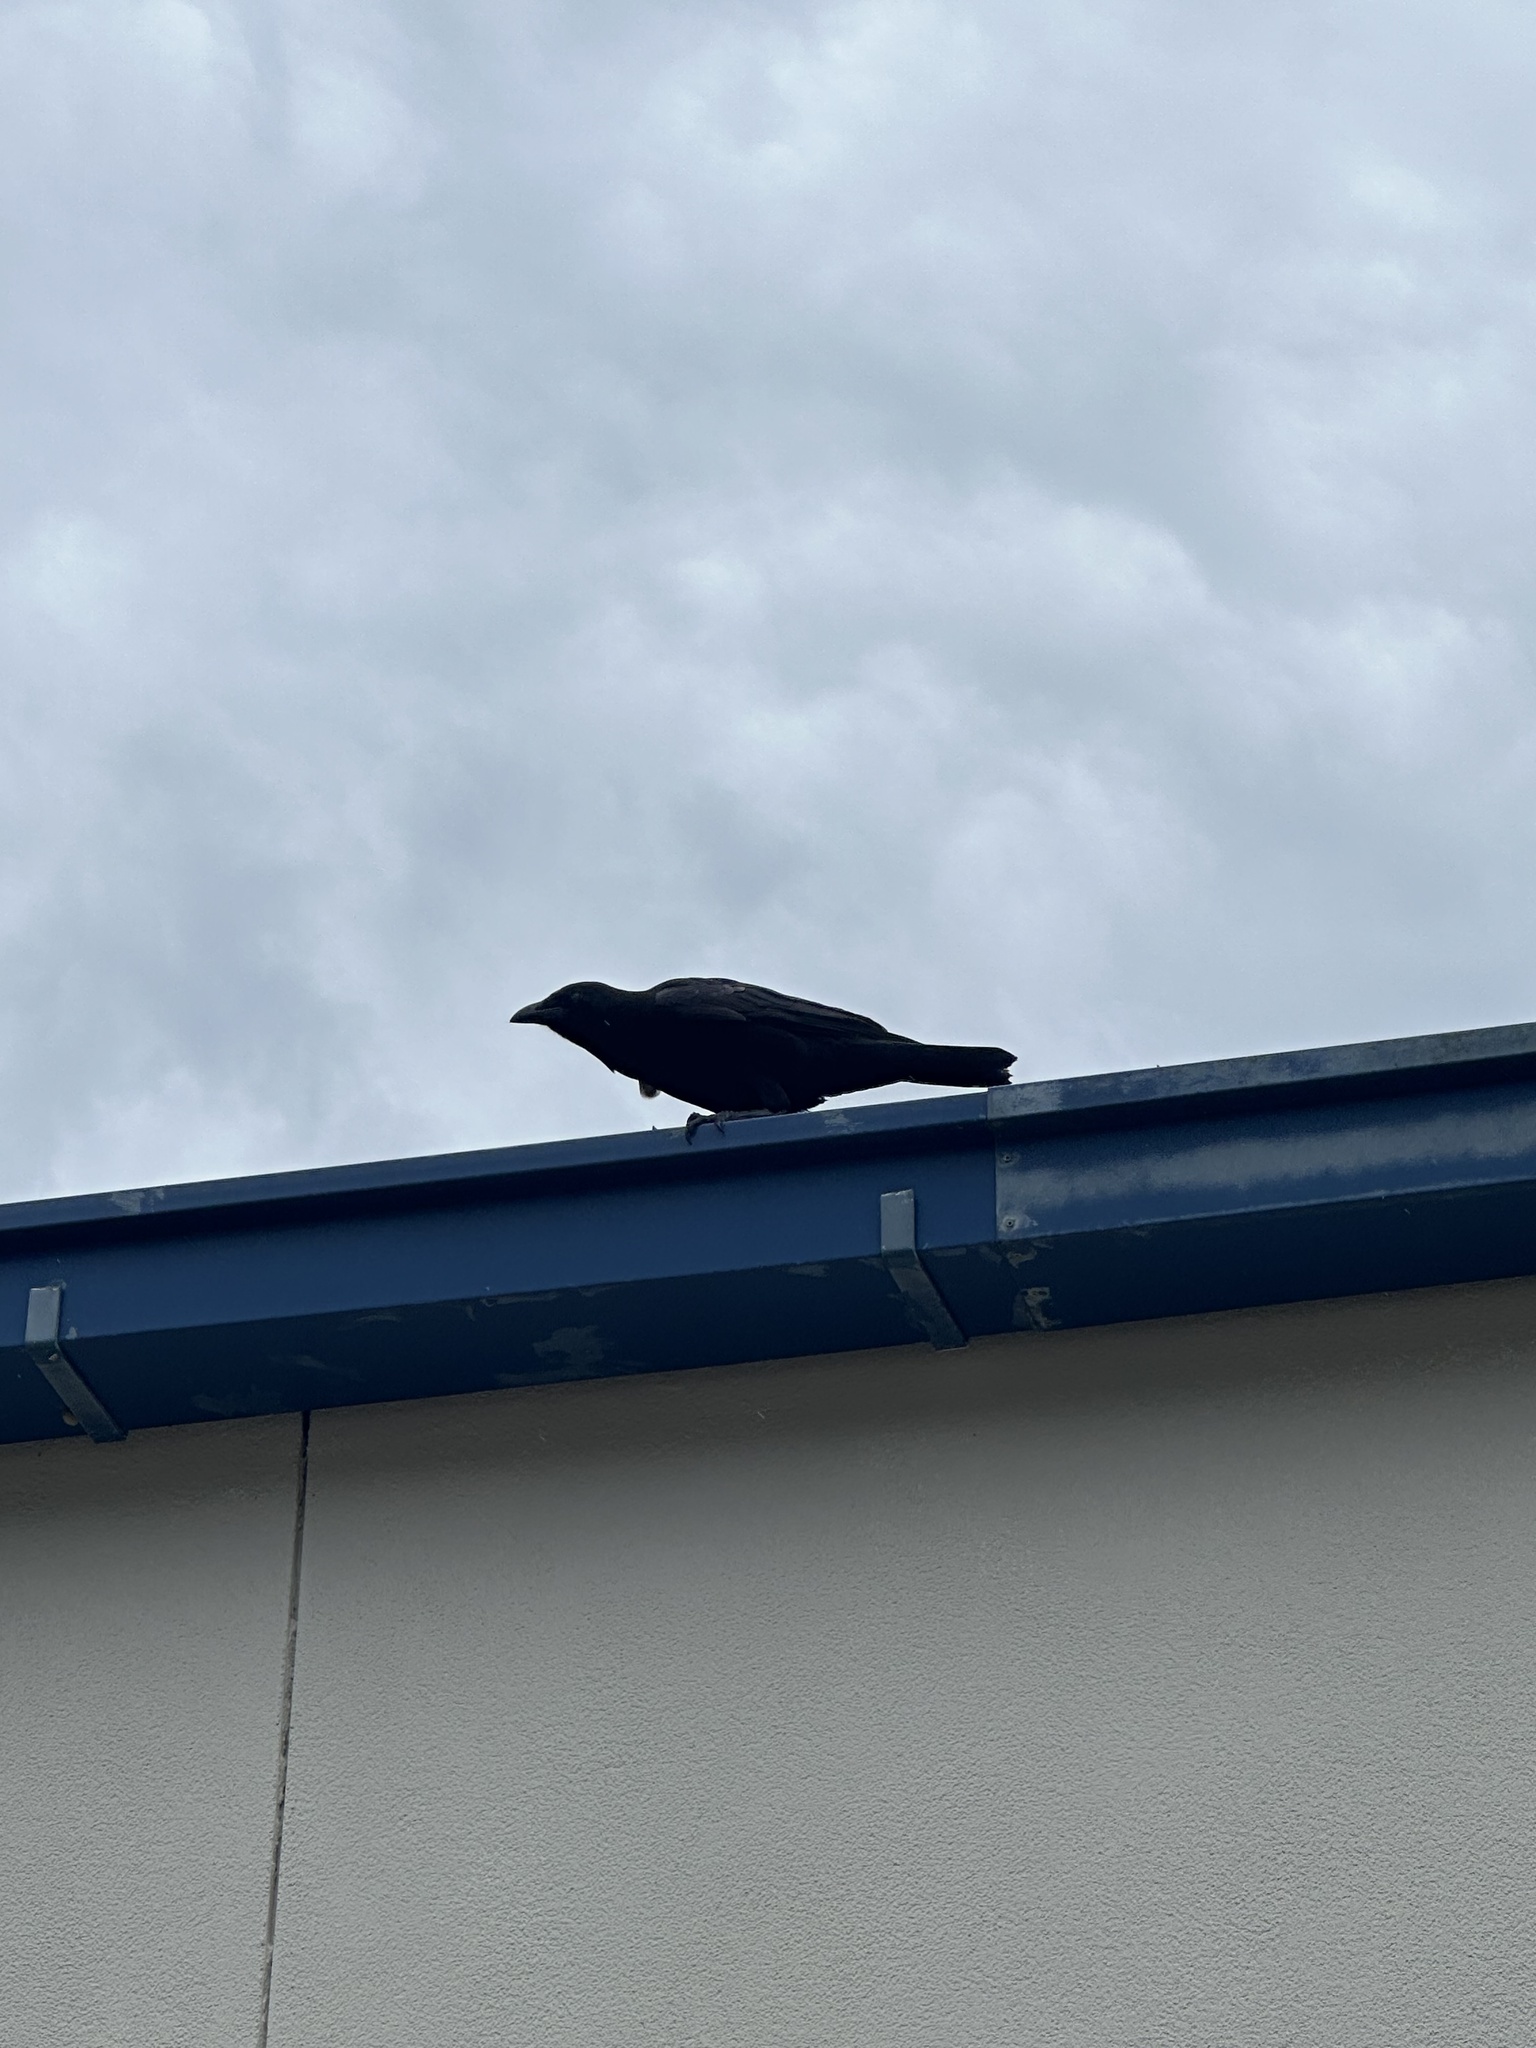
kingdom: Animalia
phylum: Chordata
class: Aves
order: Passeriformes
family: Corvidae
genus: Corvus
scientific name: Corvus
